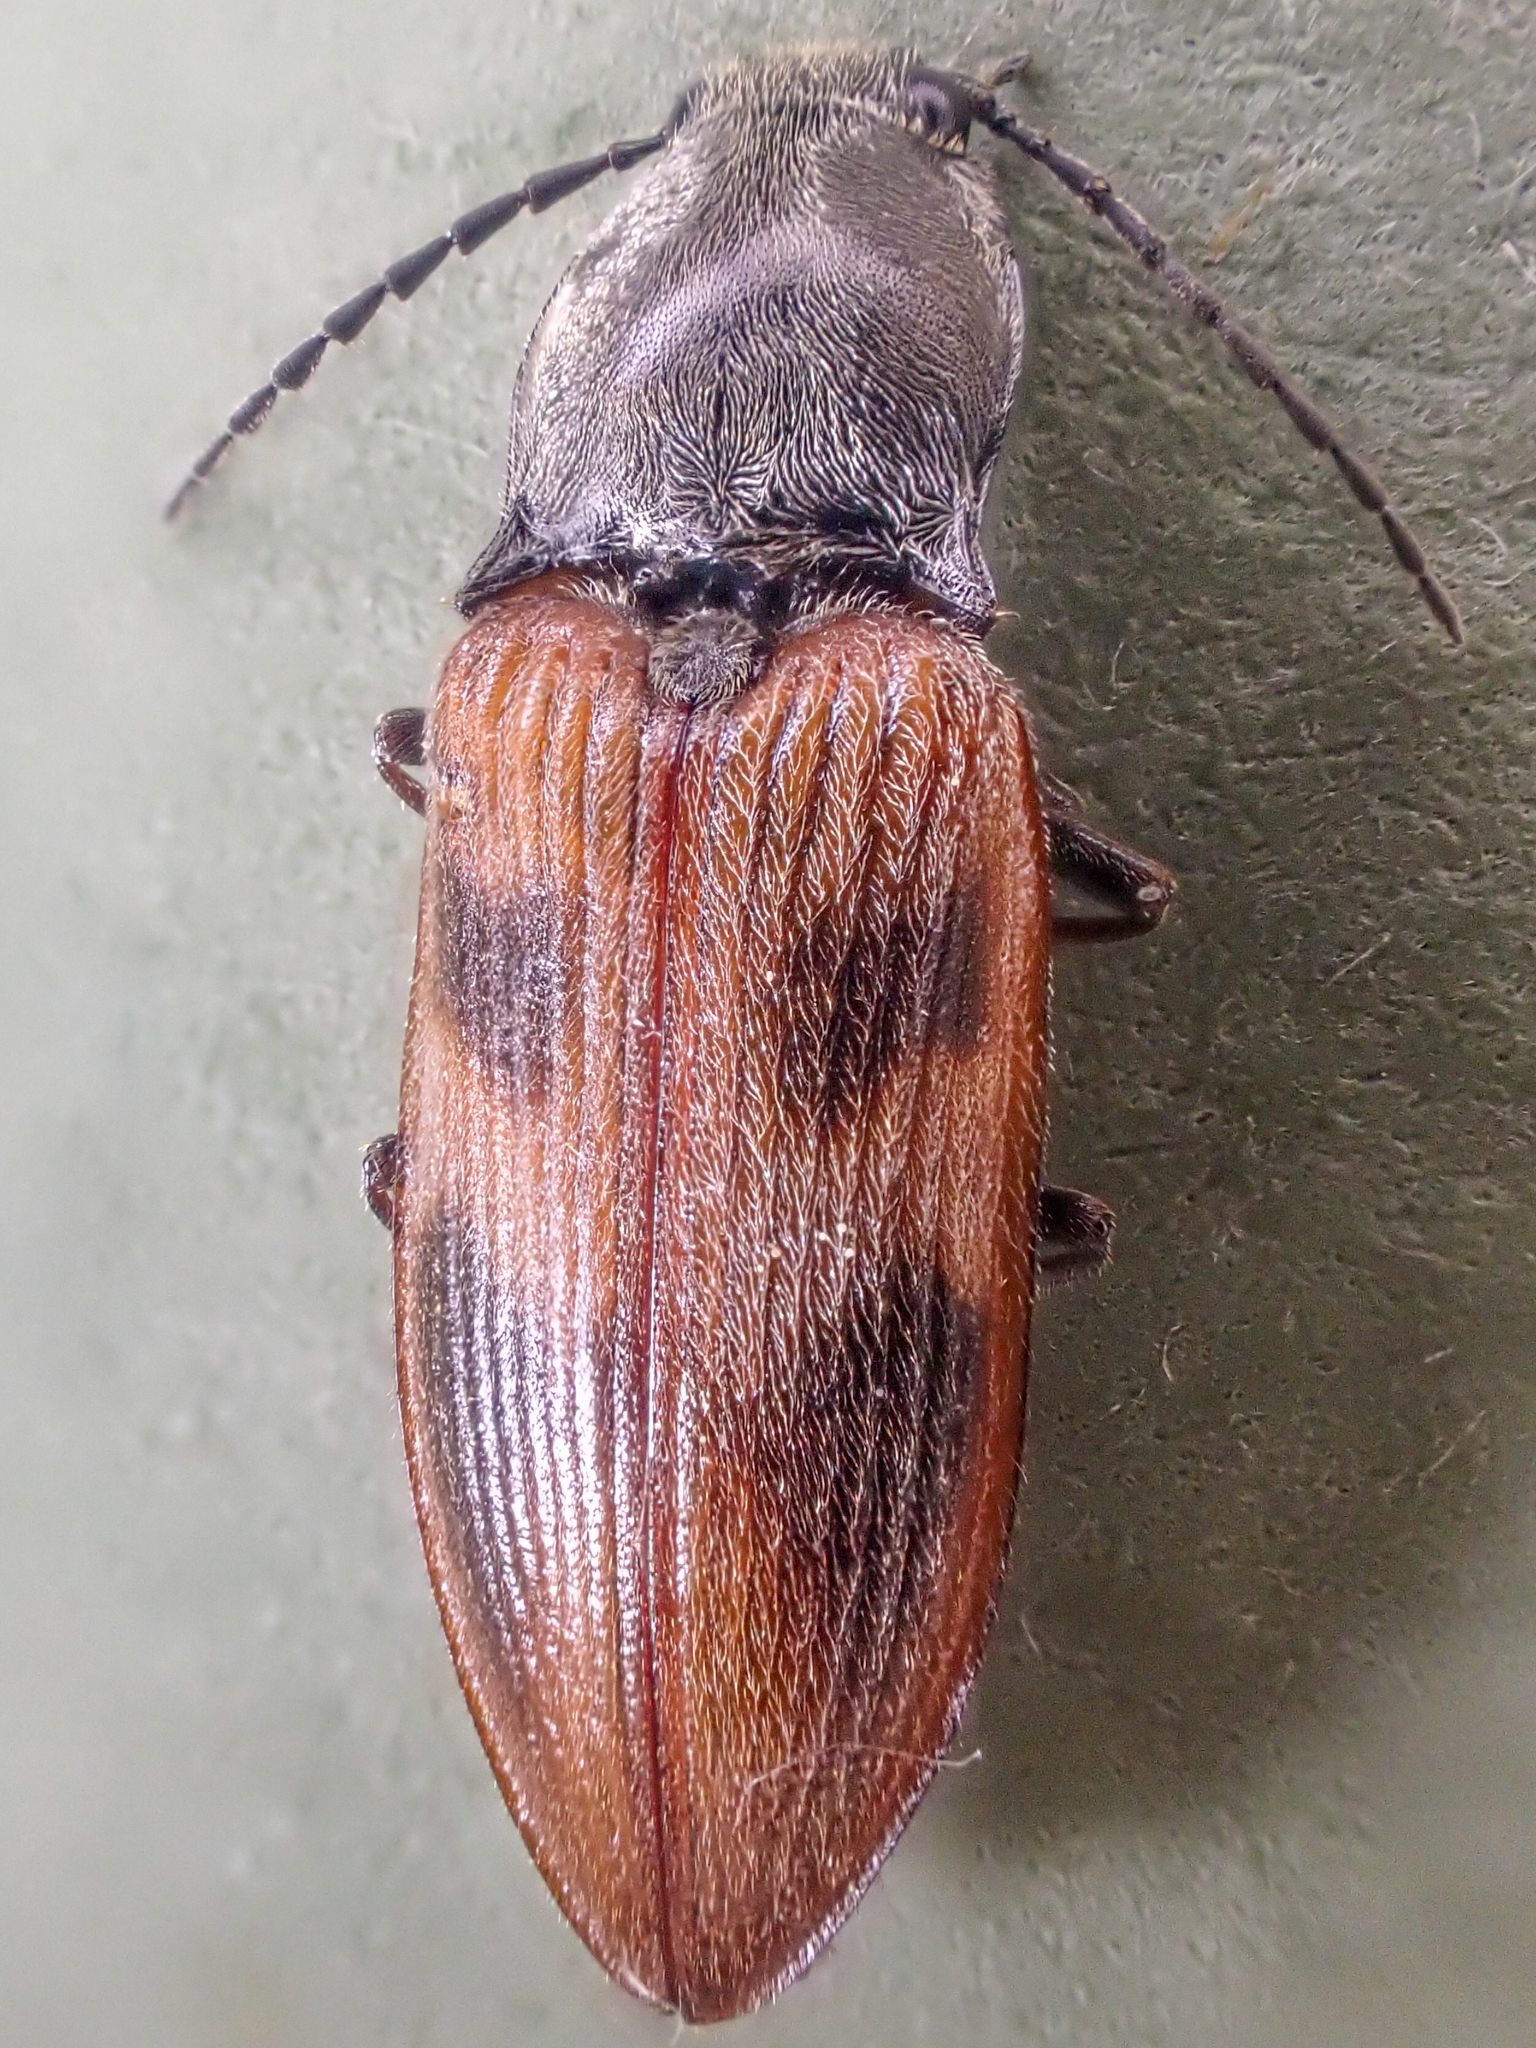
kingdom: Animalia
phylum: Arthropoda
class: Insecta
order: Coleoptera
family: Elateridae
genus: Stropenron
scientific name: Stropenron nigricollis
